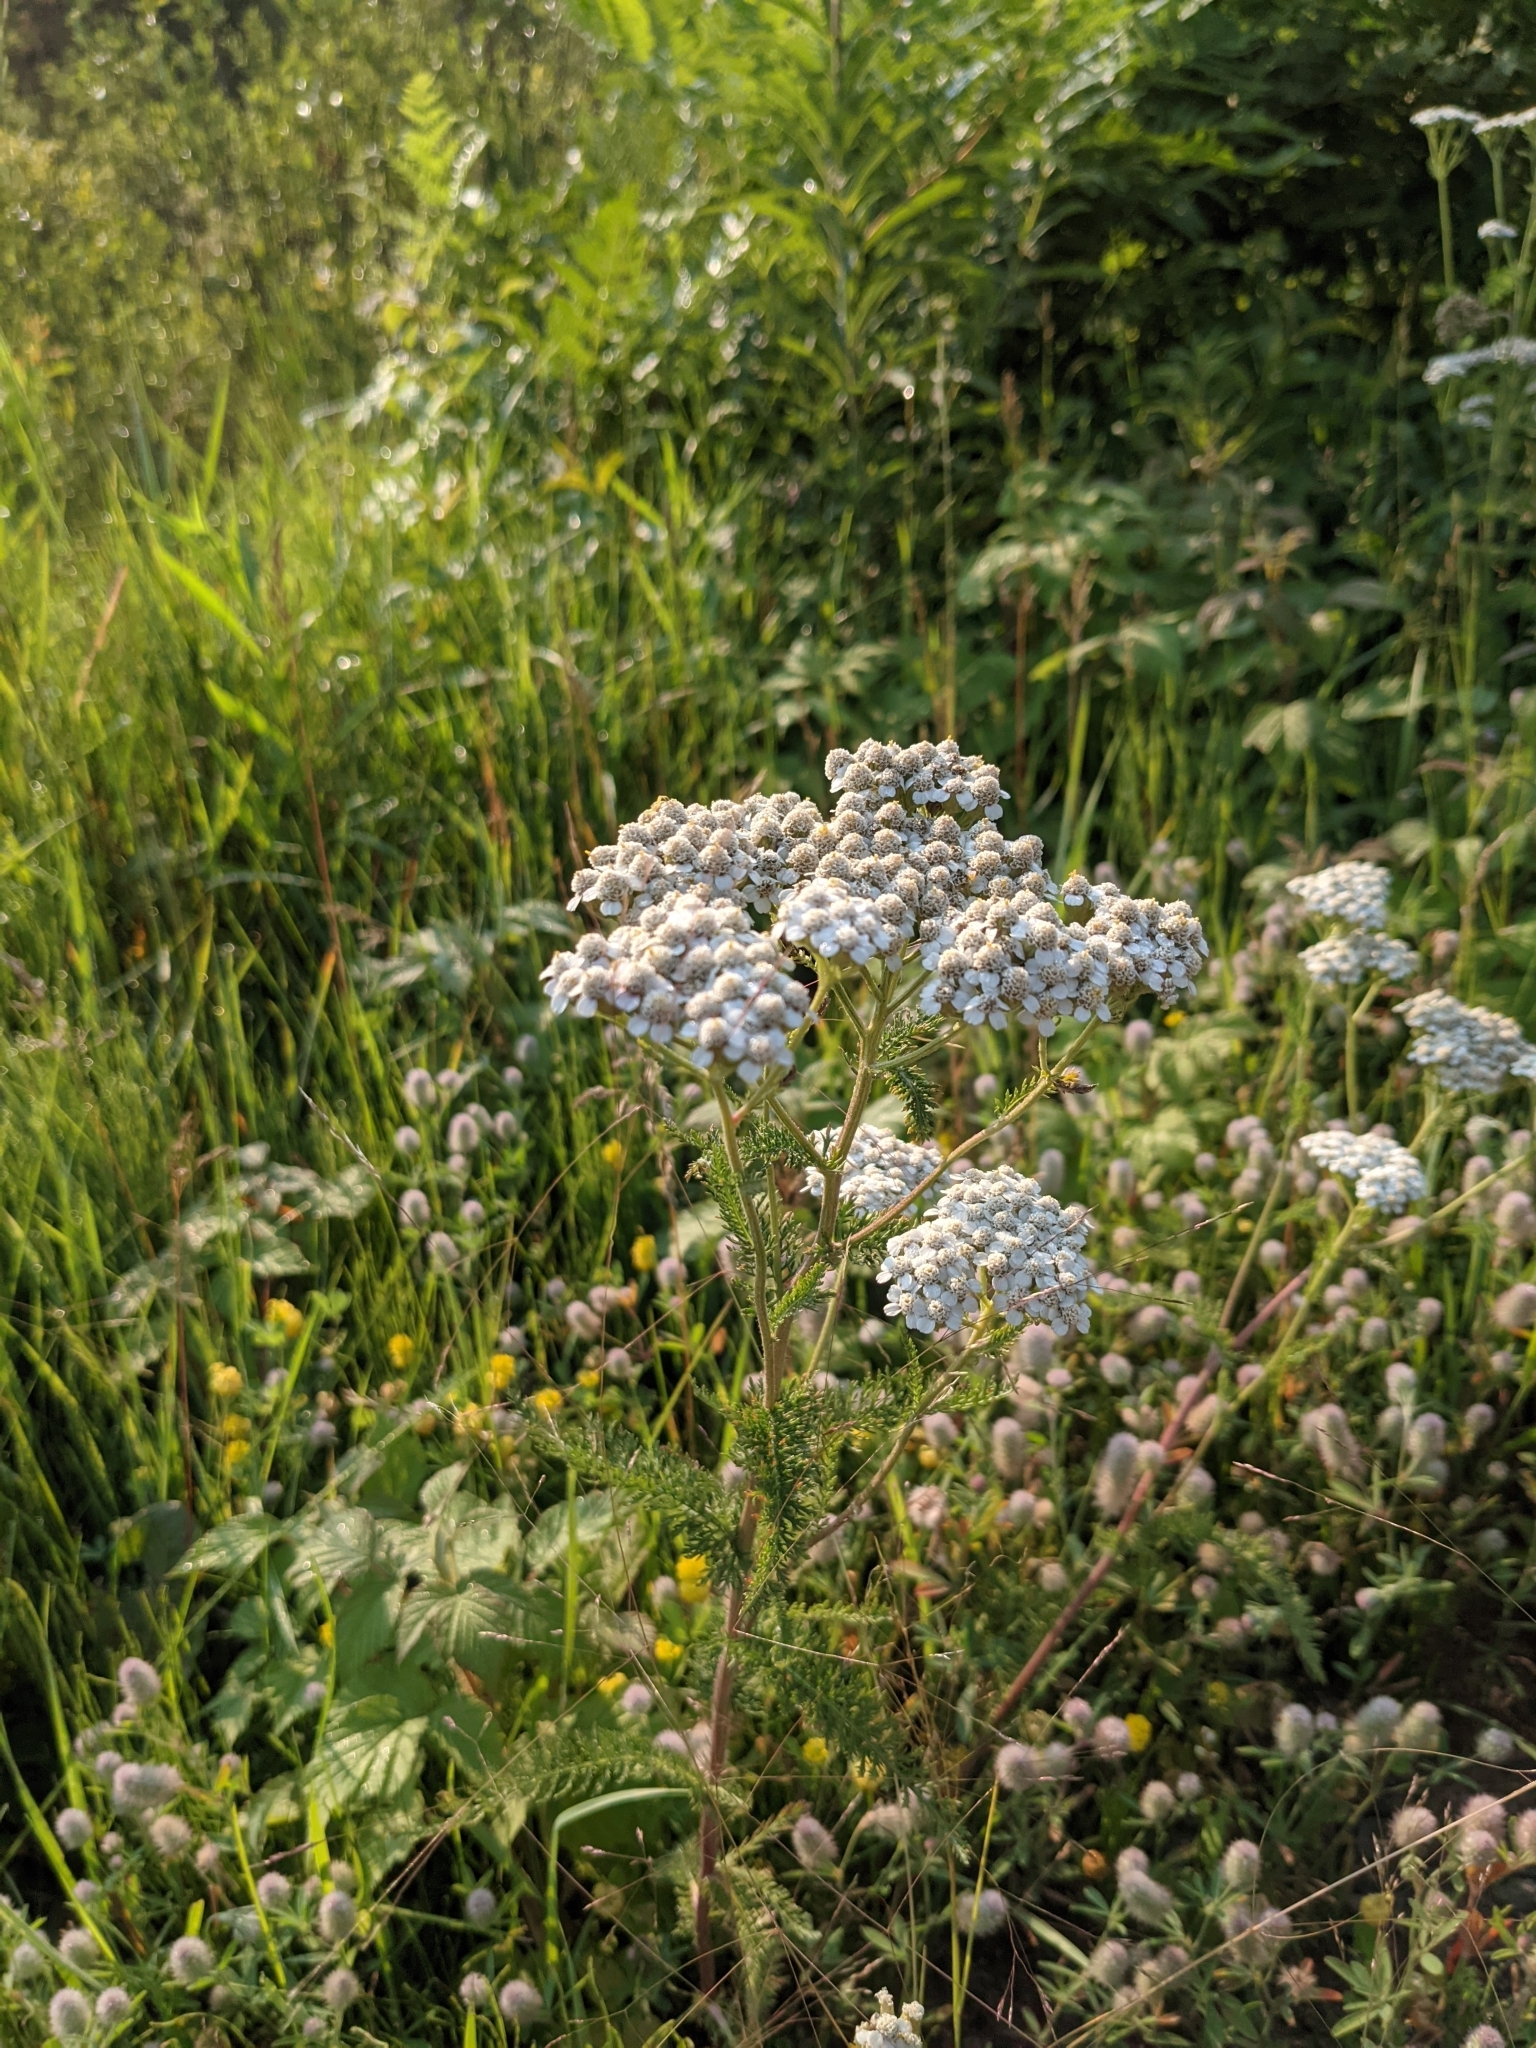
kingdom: Plantae
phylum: Tracheophyta
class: Magnoliopsida
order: Asterales
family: Asteraceae
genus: Achillea
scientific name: Achillea millefolium
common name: Yarrow
